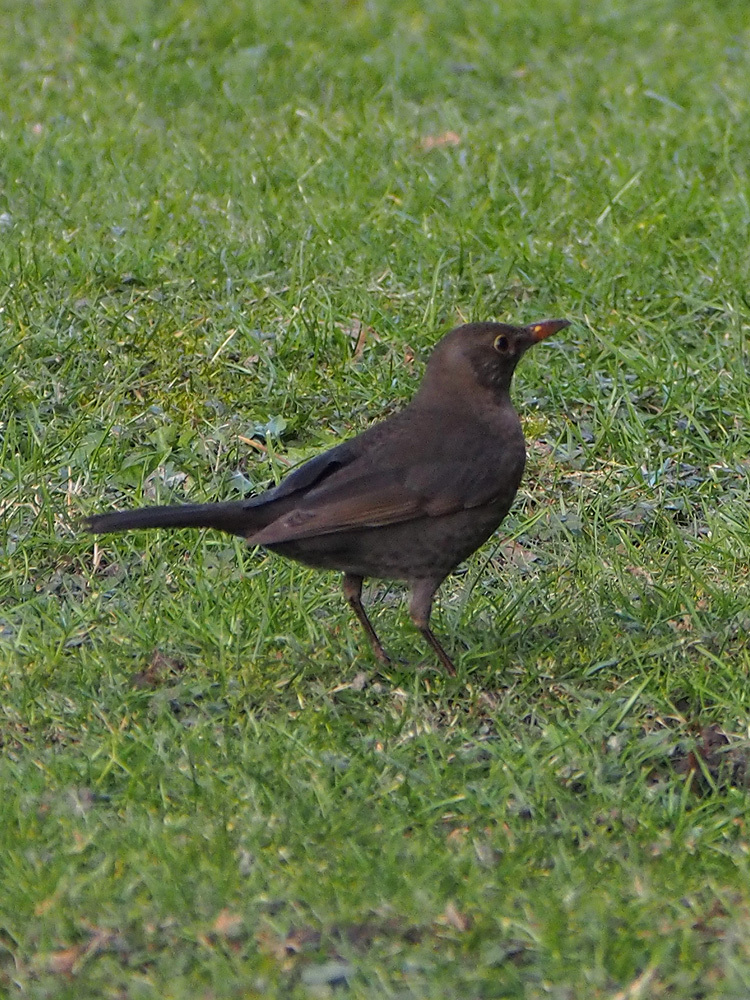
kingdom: Animalia
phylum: Chordata
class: Aves
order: Passeriformes
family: Turdidae
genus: Turdus
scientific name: Turdus merula
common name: Common blackbird
